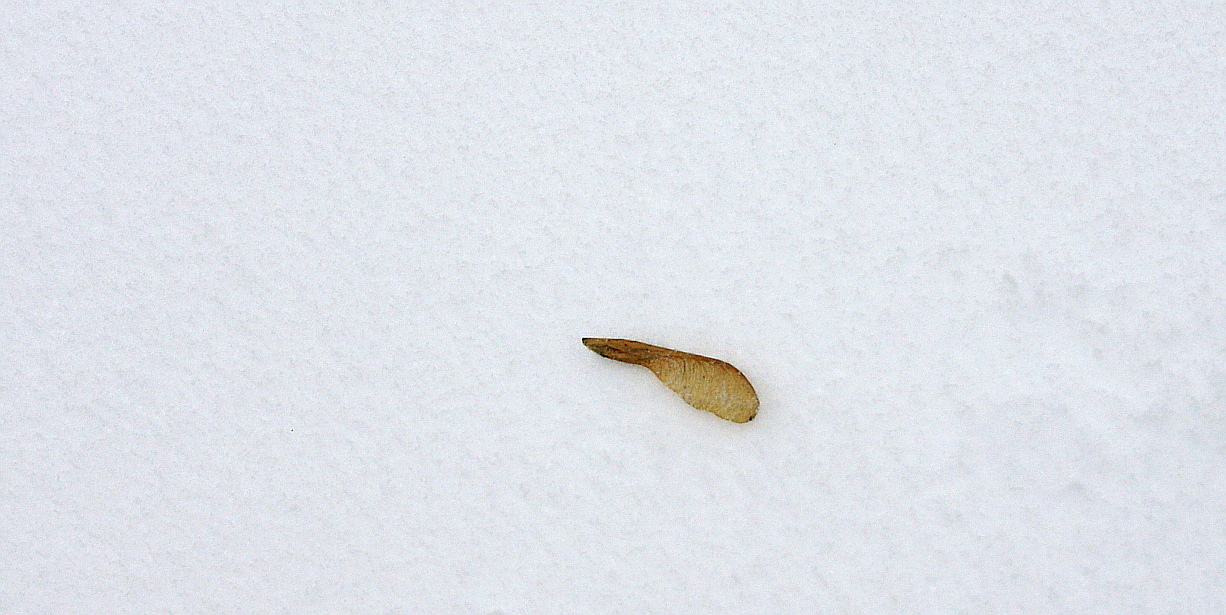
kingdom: Plantae
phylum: Tracheophyta
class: Magnoliopsida
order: Sapindales
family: Sapindaceae
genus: Acer
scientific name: Acer negundo
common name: Ashleaf maple
